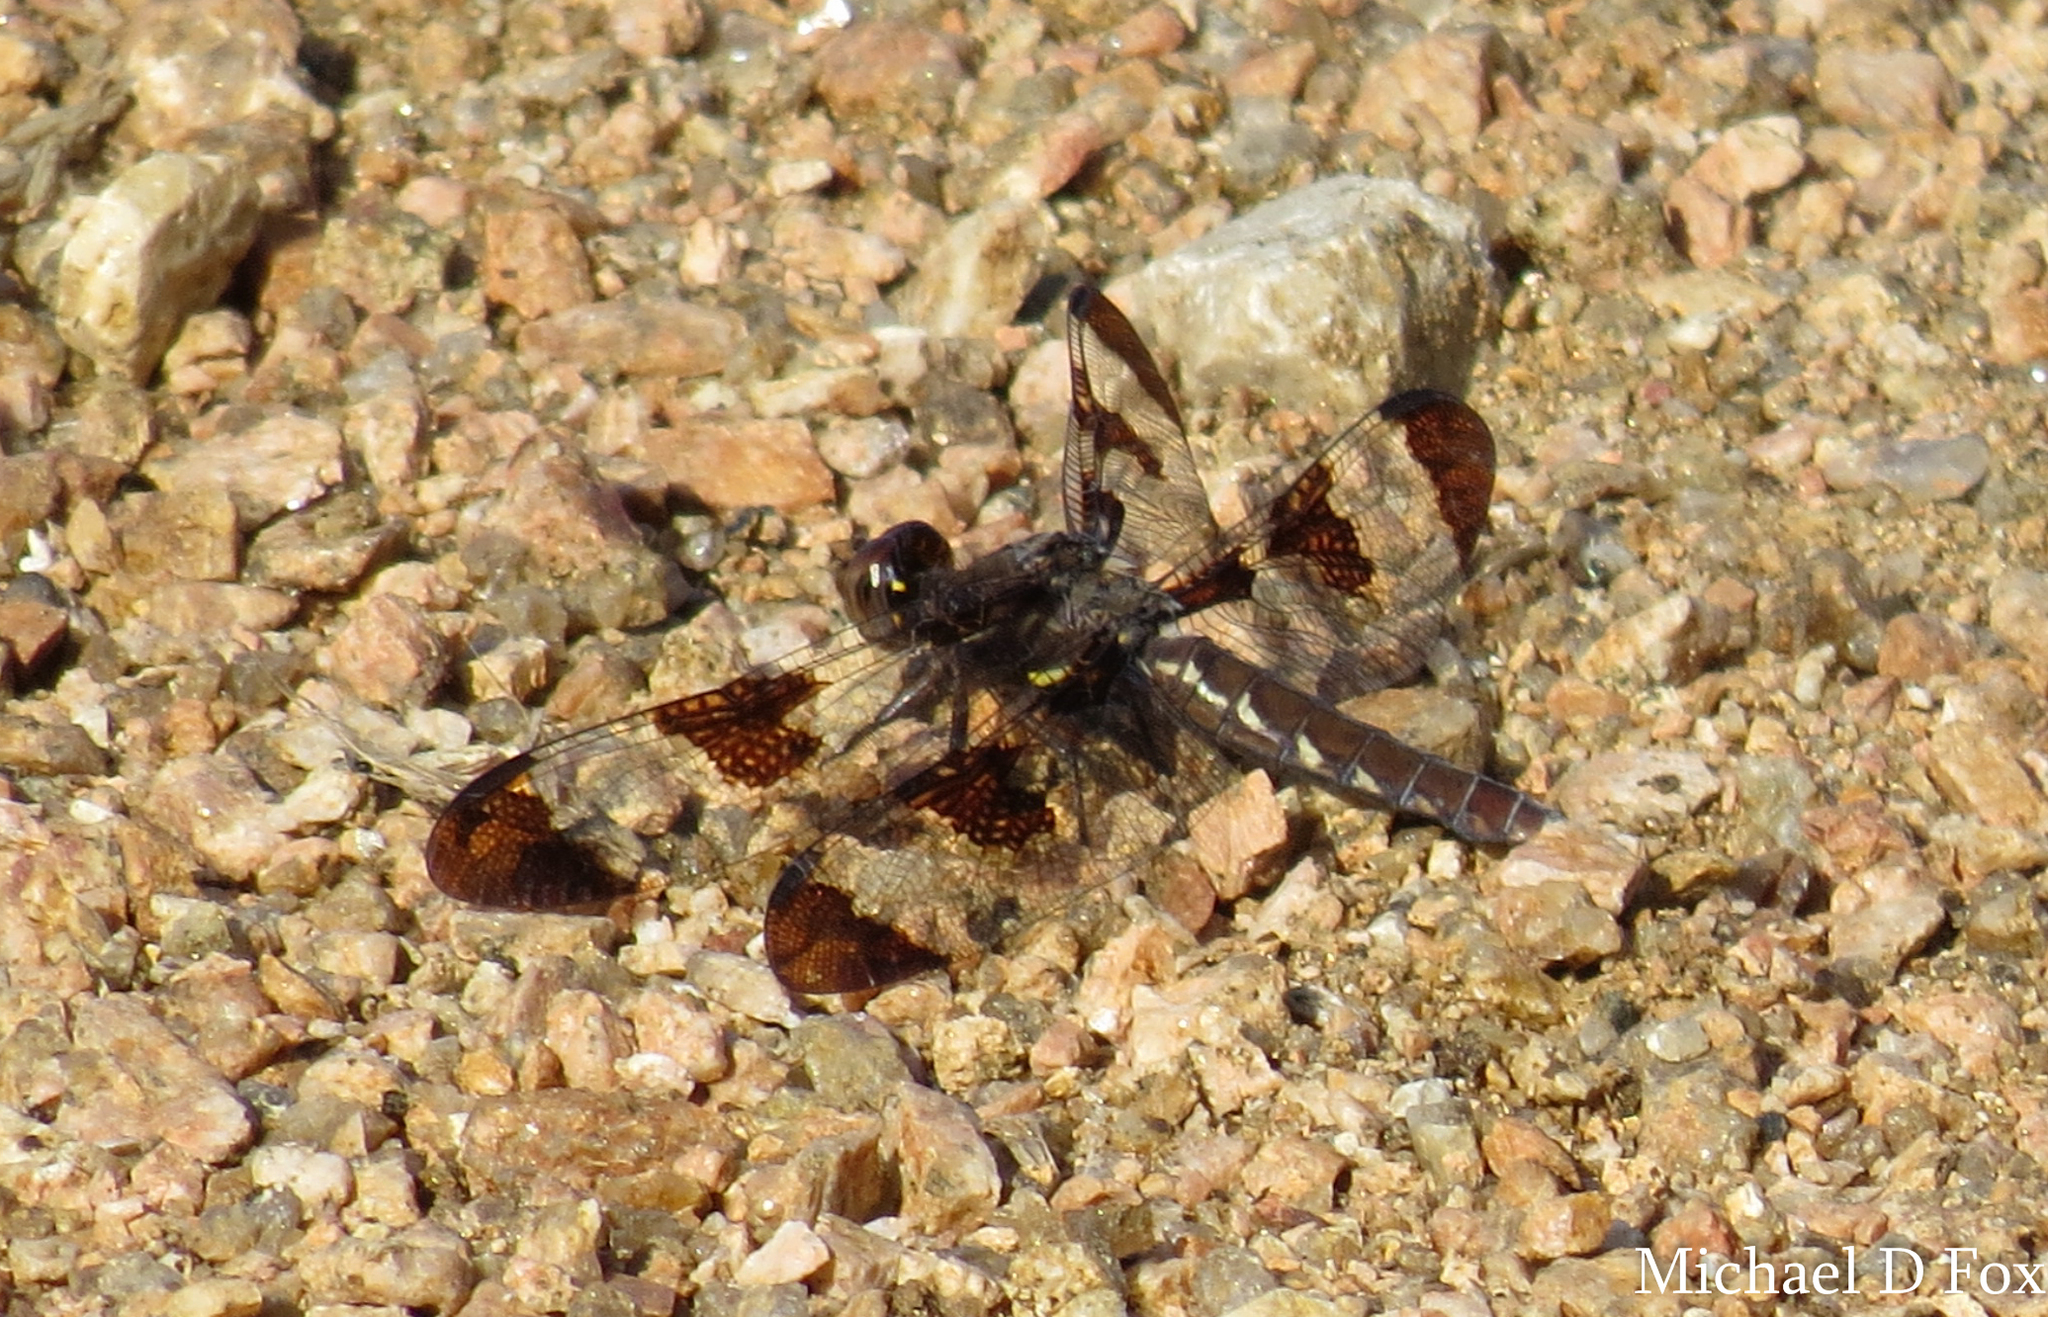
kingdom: Animalia
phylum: Arthropoda
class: Insecta
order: Odonata
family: Libellulidae
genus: Plathemis
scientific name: Plathemis lydia
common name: Common whitetail
